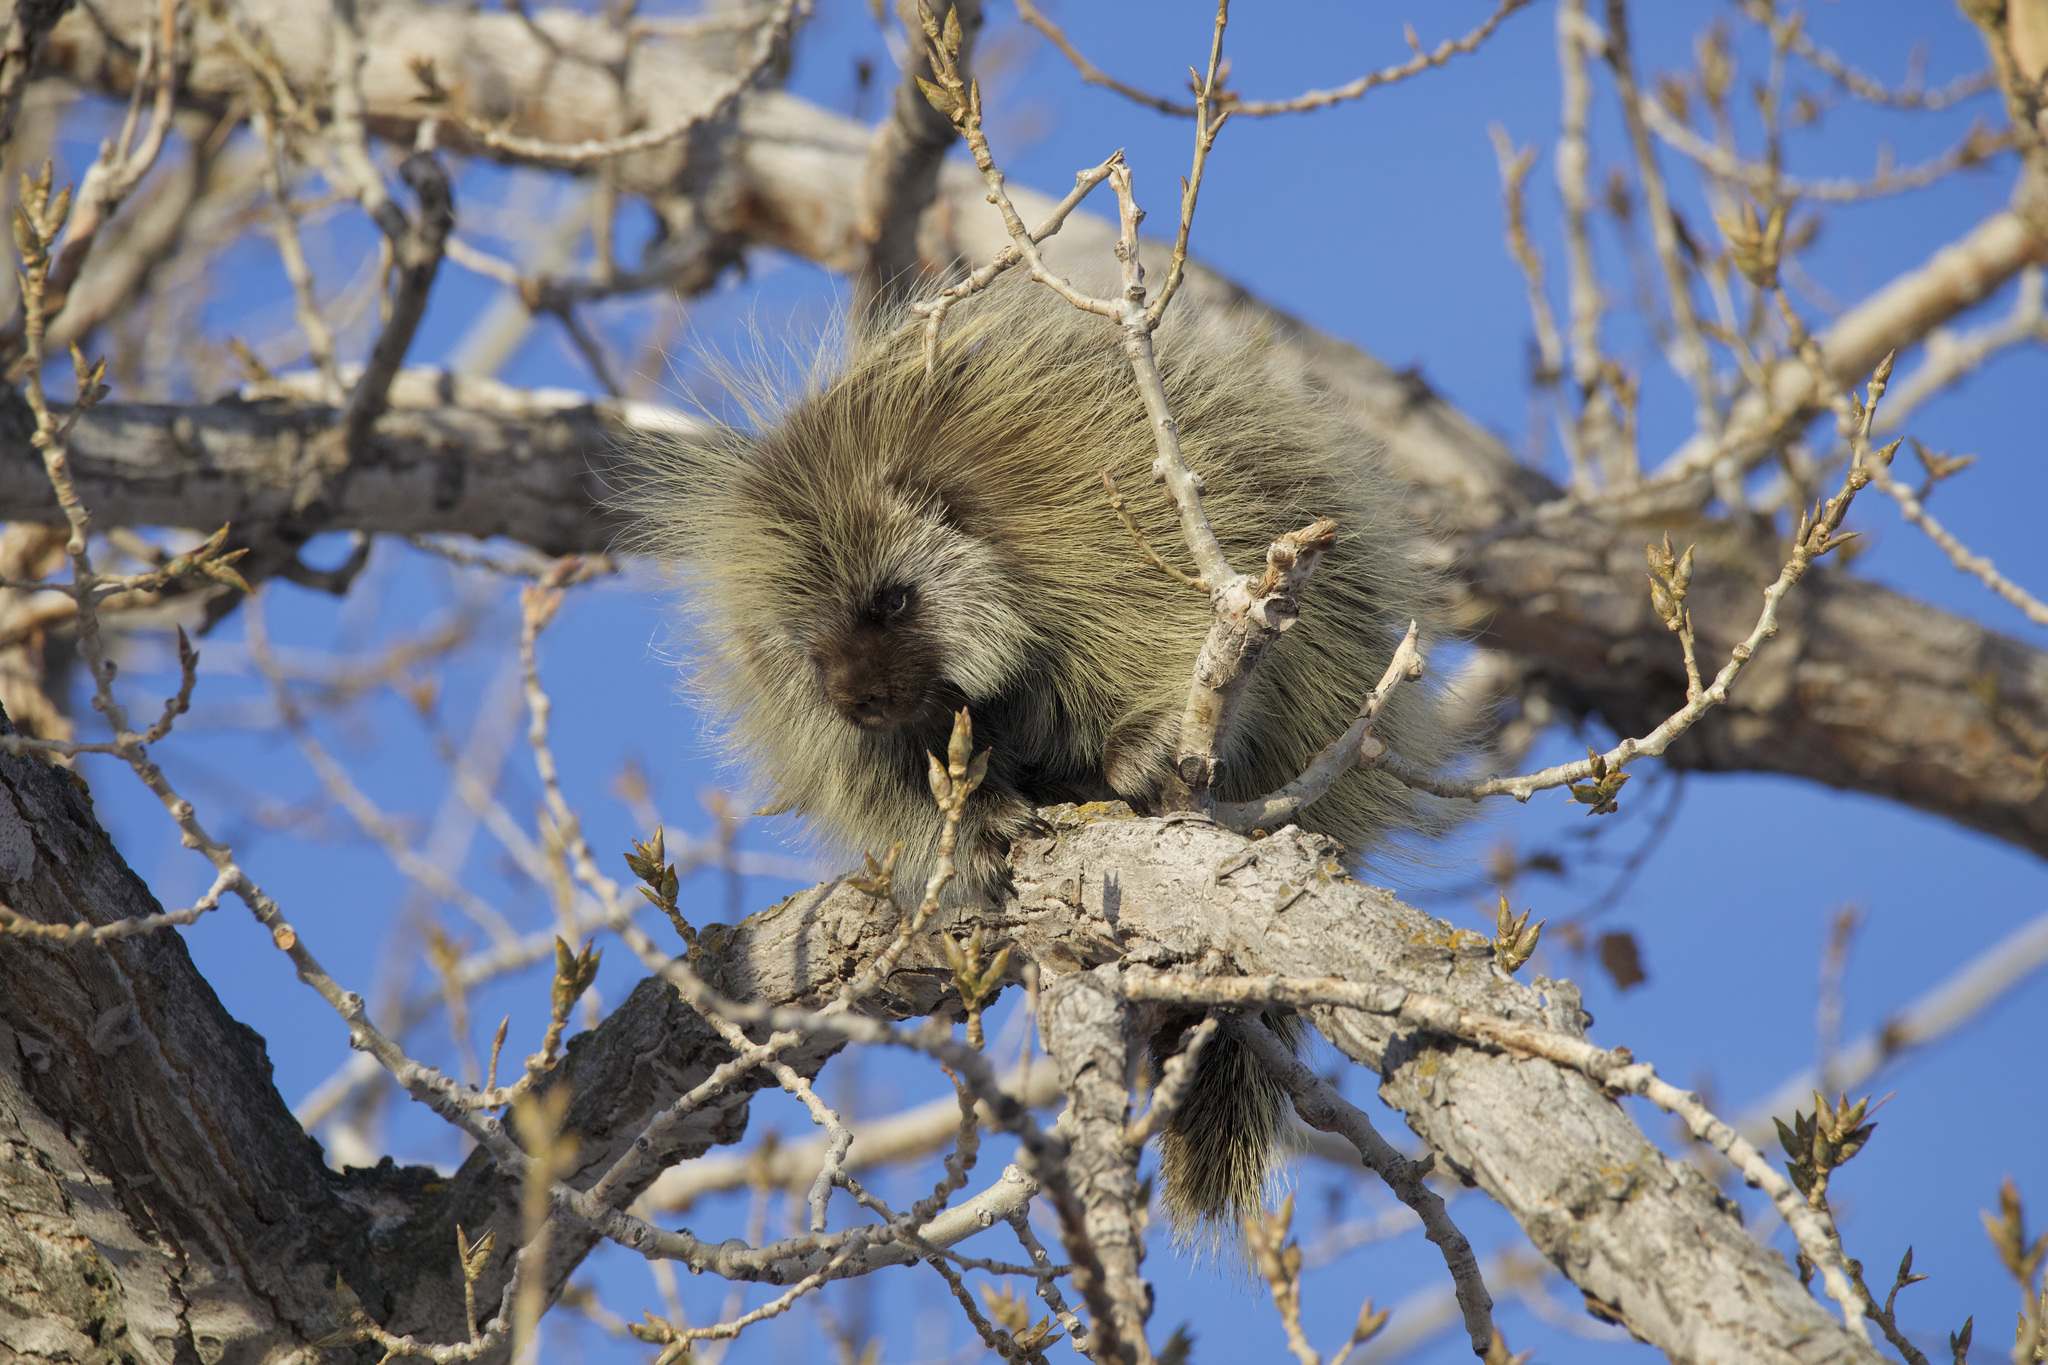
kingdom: Animalia
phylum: Chordata
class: Mammalia
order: Rodentia
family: Erethizontidae
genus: Erethizon
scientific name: Erethizon dorsatus
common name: North american porcupine
